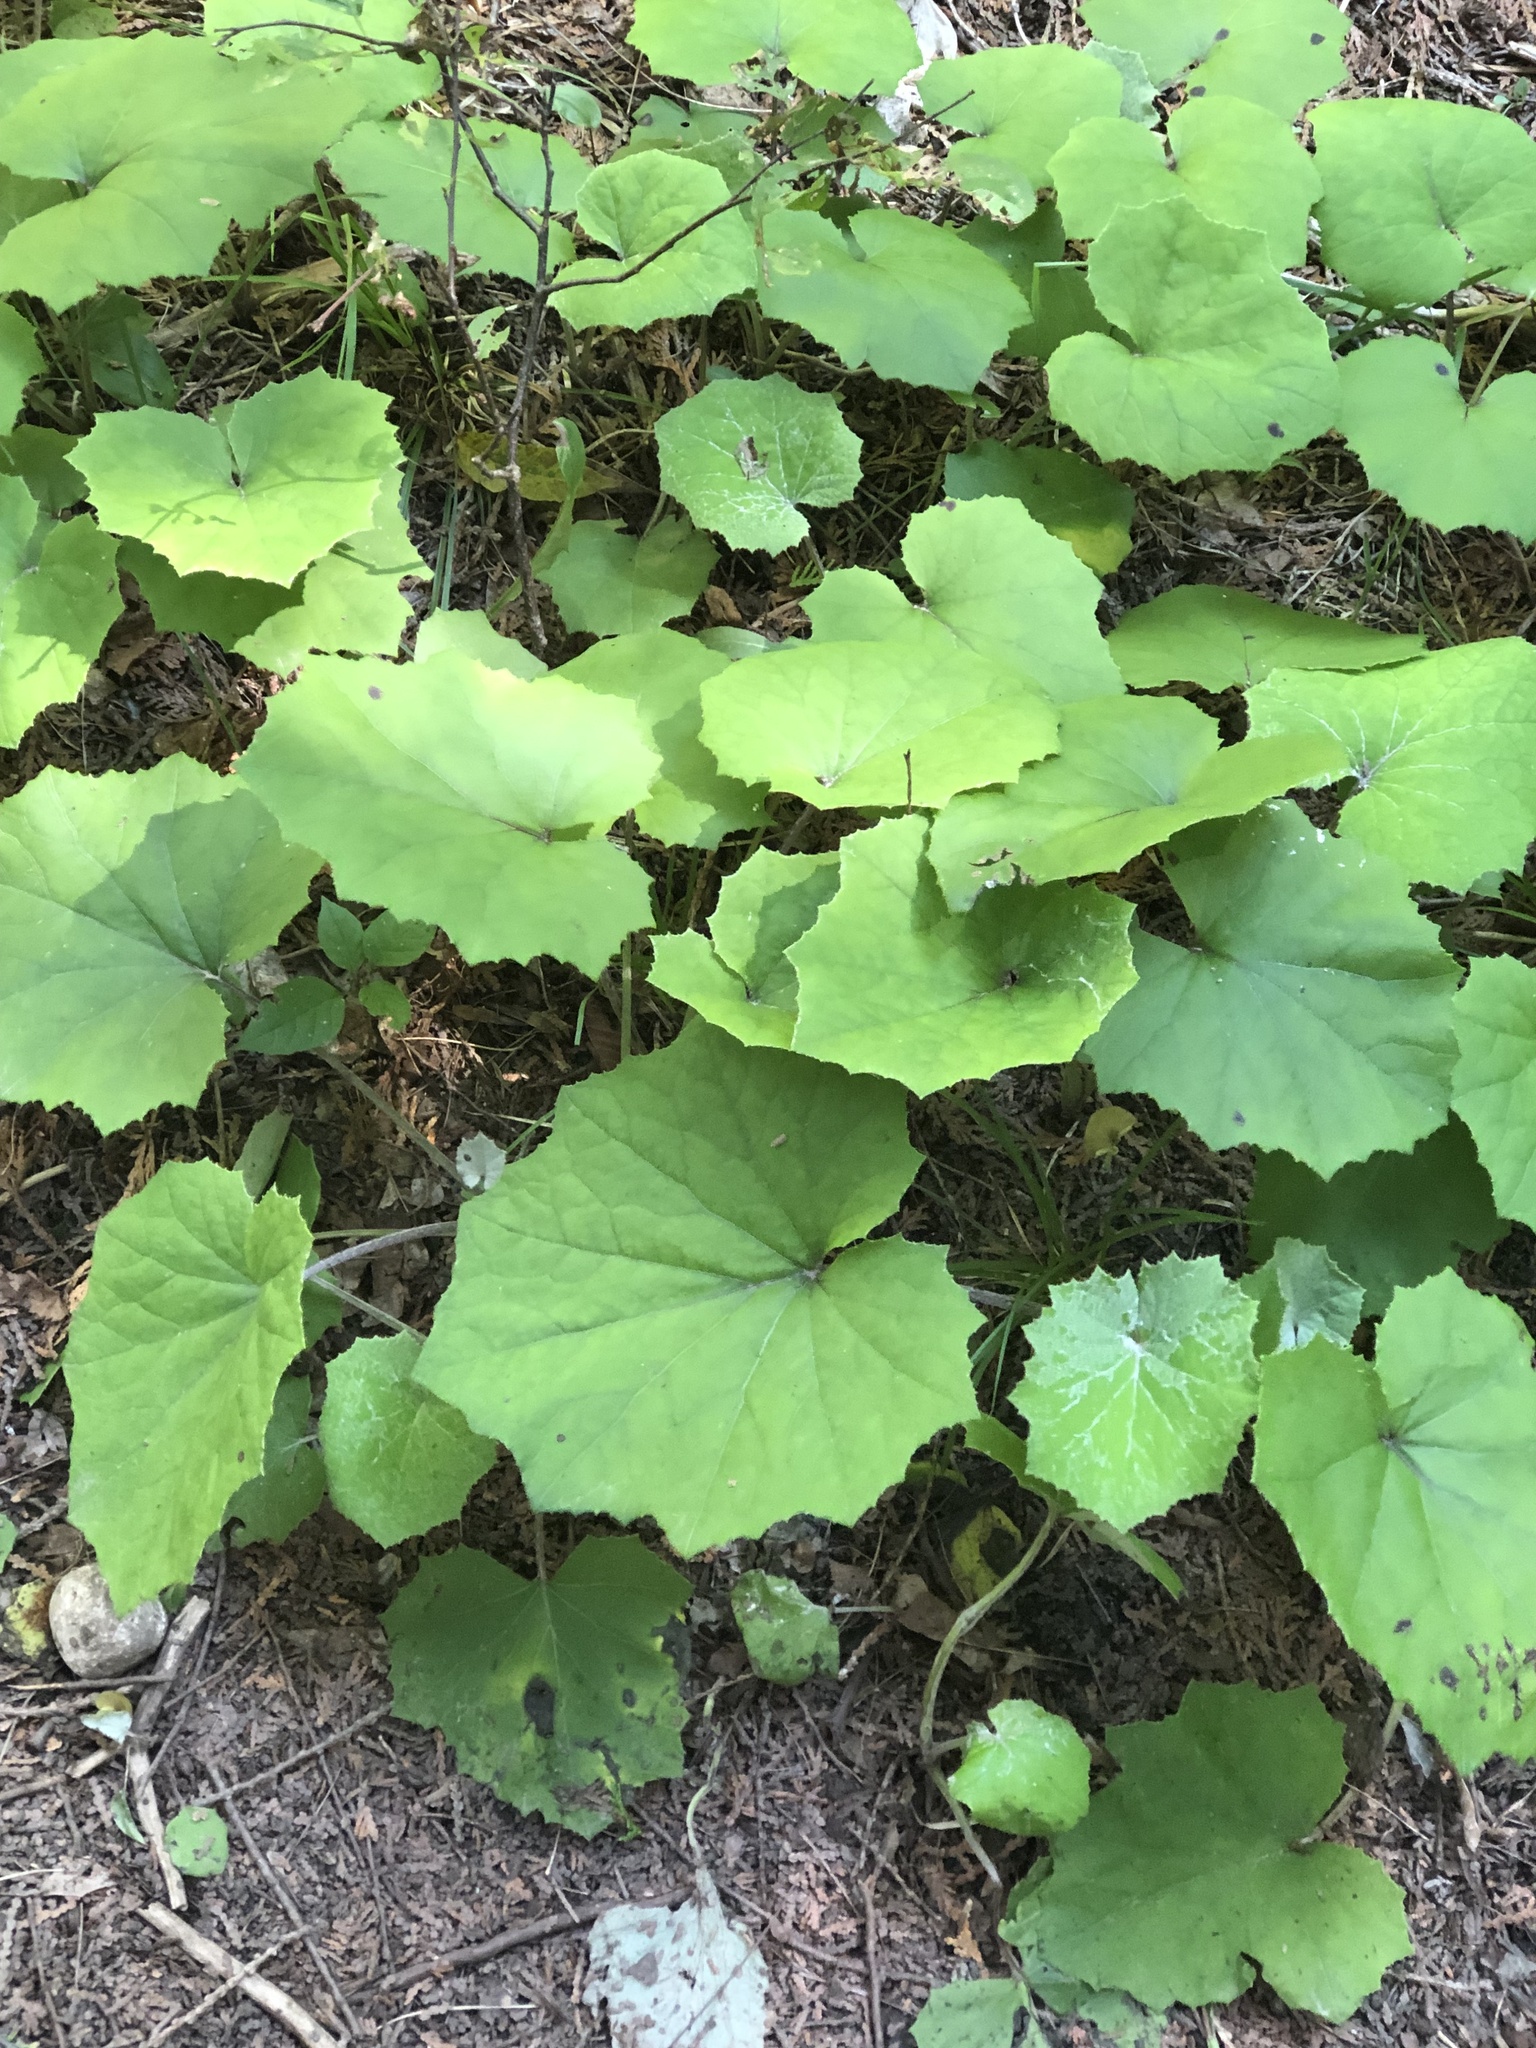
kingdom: Plantae
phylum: Tracheophyta
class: Magnoliopsida
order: Asterales
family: Asteraceae
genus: Tussilago
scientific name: Tussilago farfara
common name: Coltsfoot
